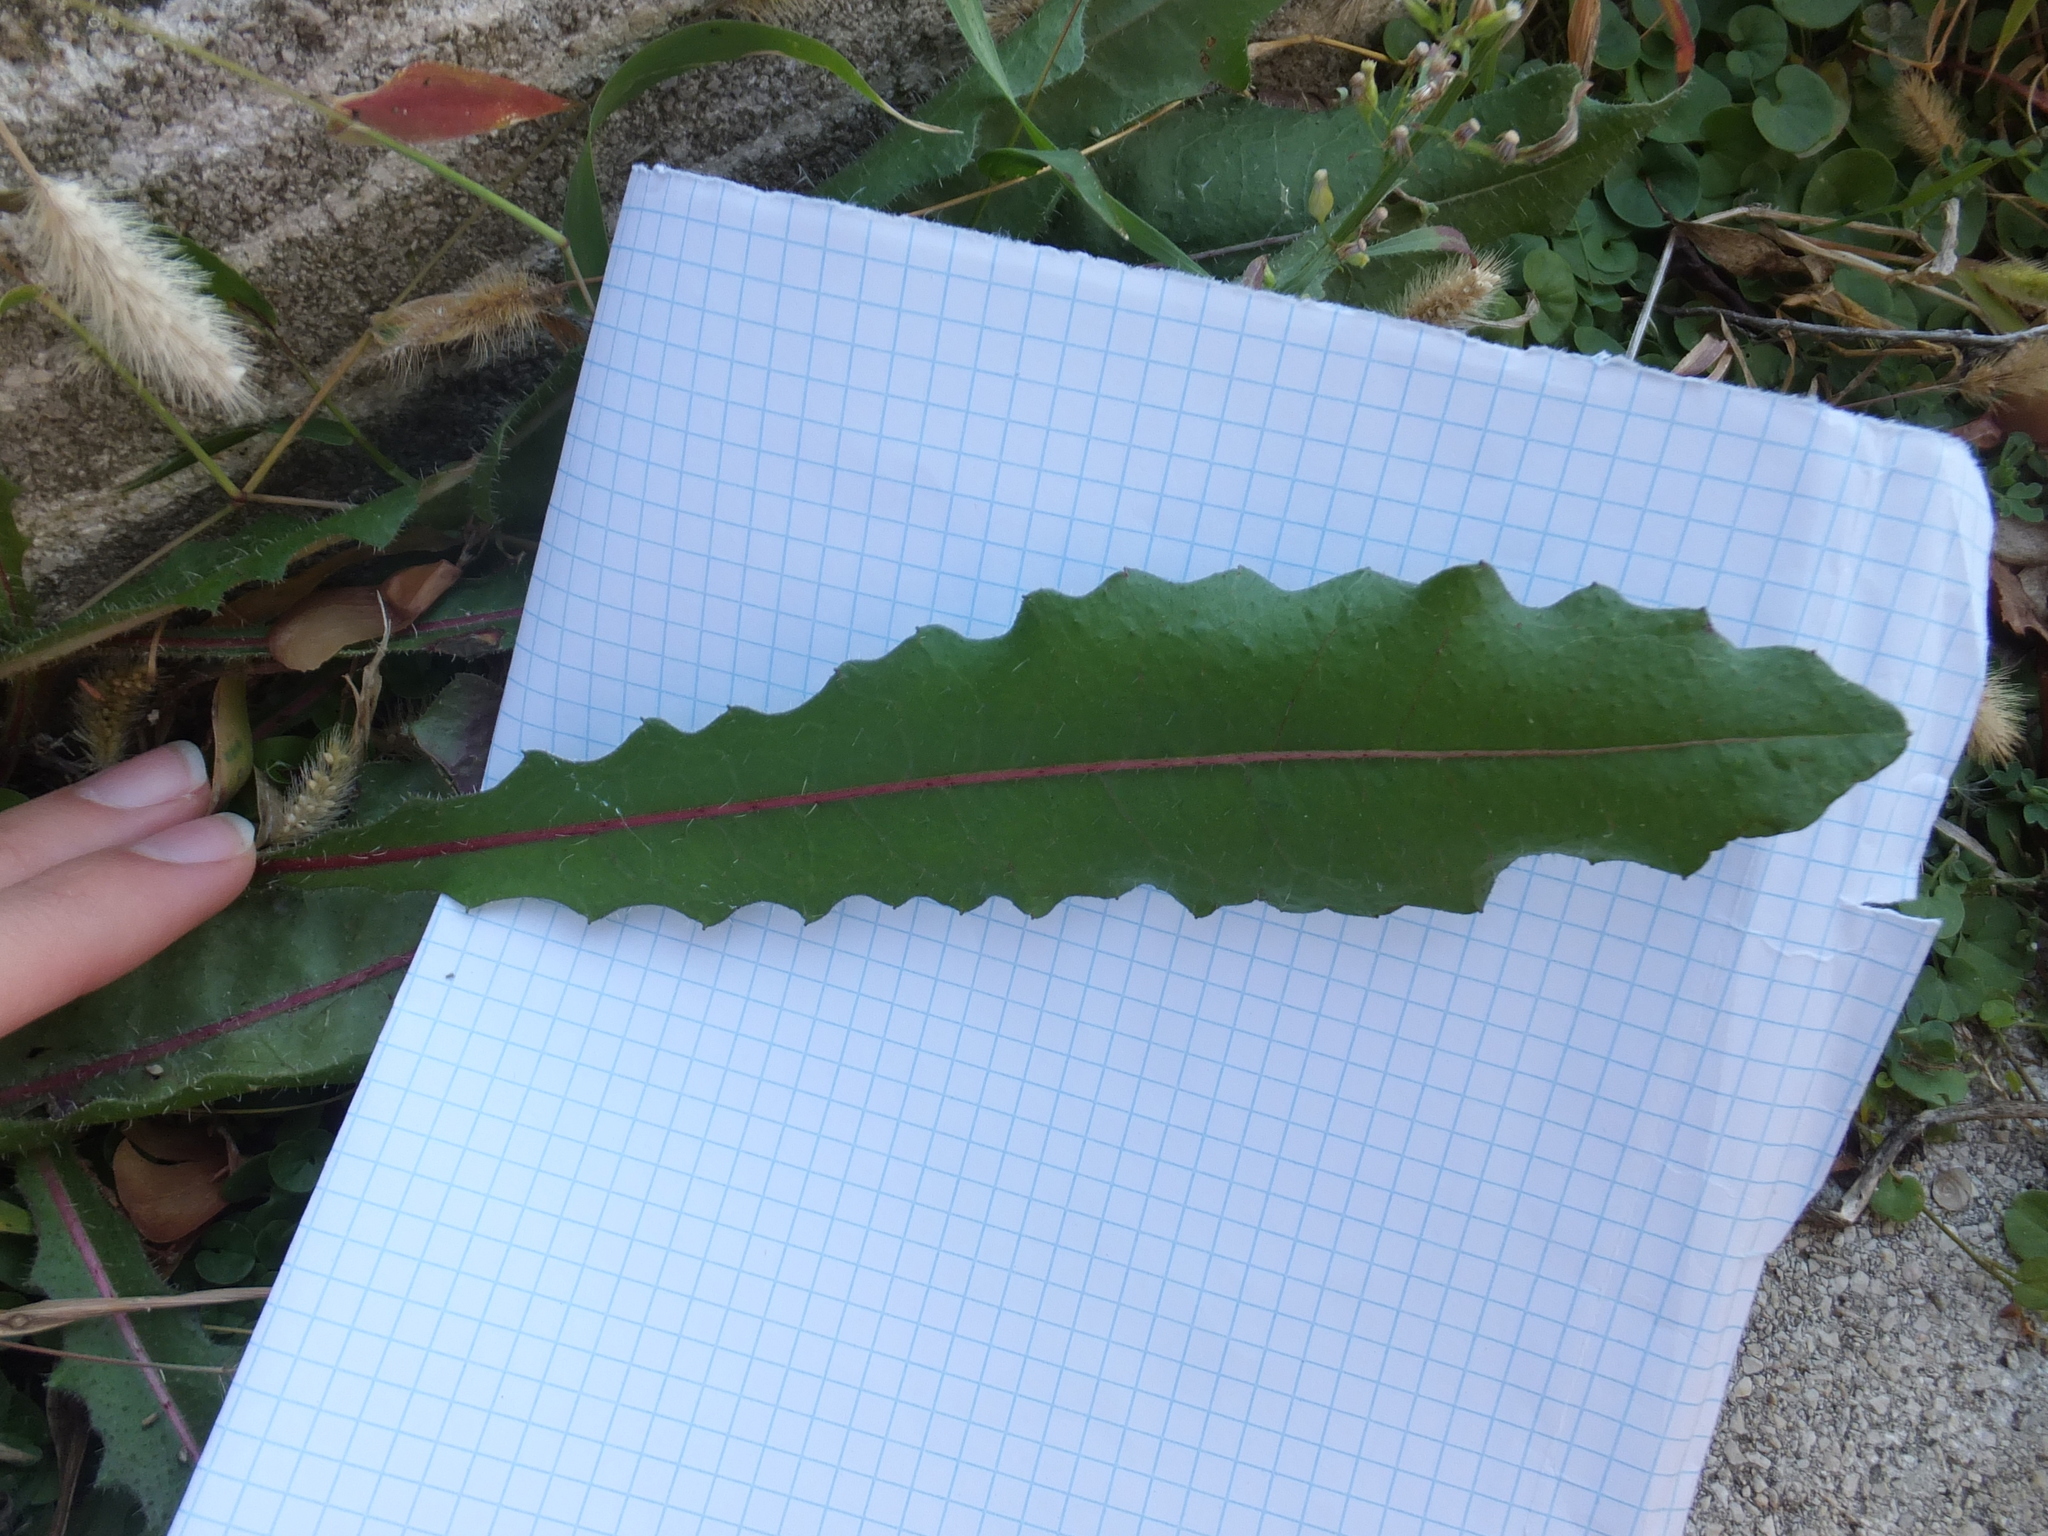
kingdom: Plantae
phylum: Tracheophyta
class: Magnoliopsida
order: Asterales
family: Asteraceae
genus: Picris
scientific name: Picris hieracioides
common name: Hawkweed oxtongue
